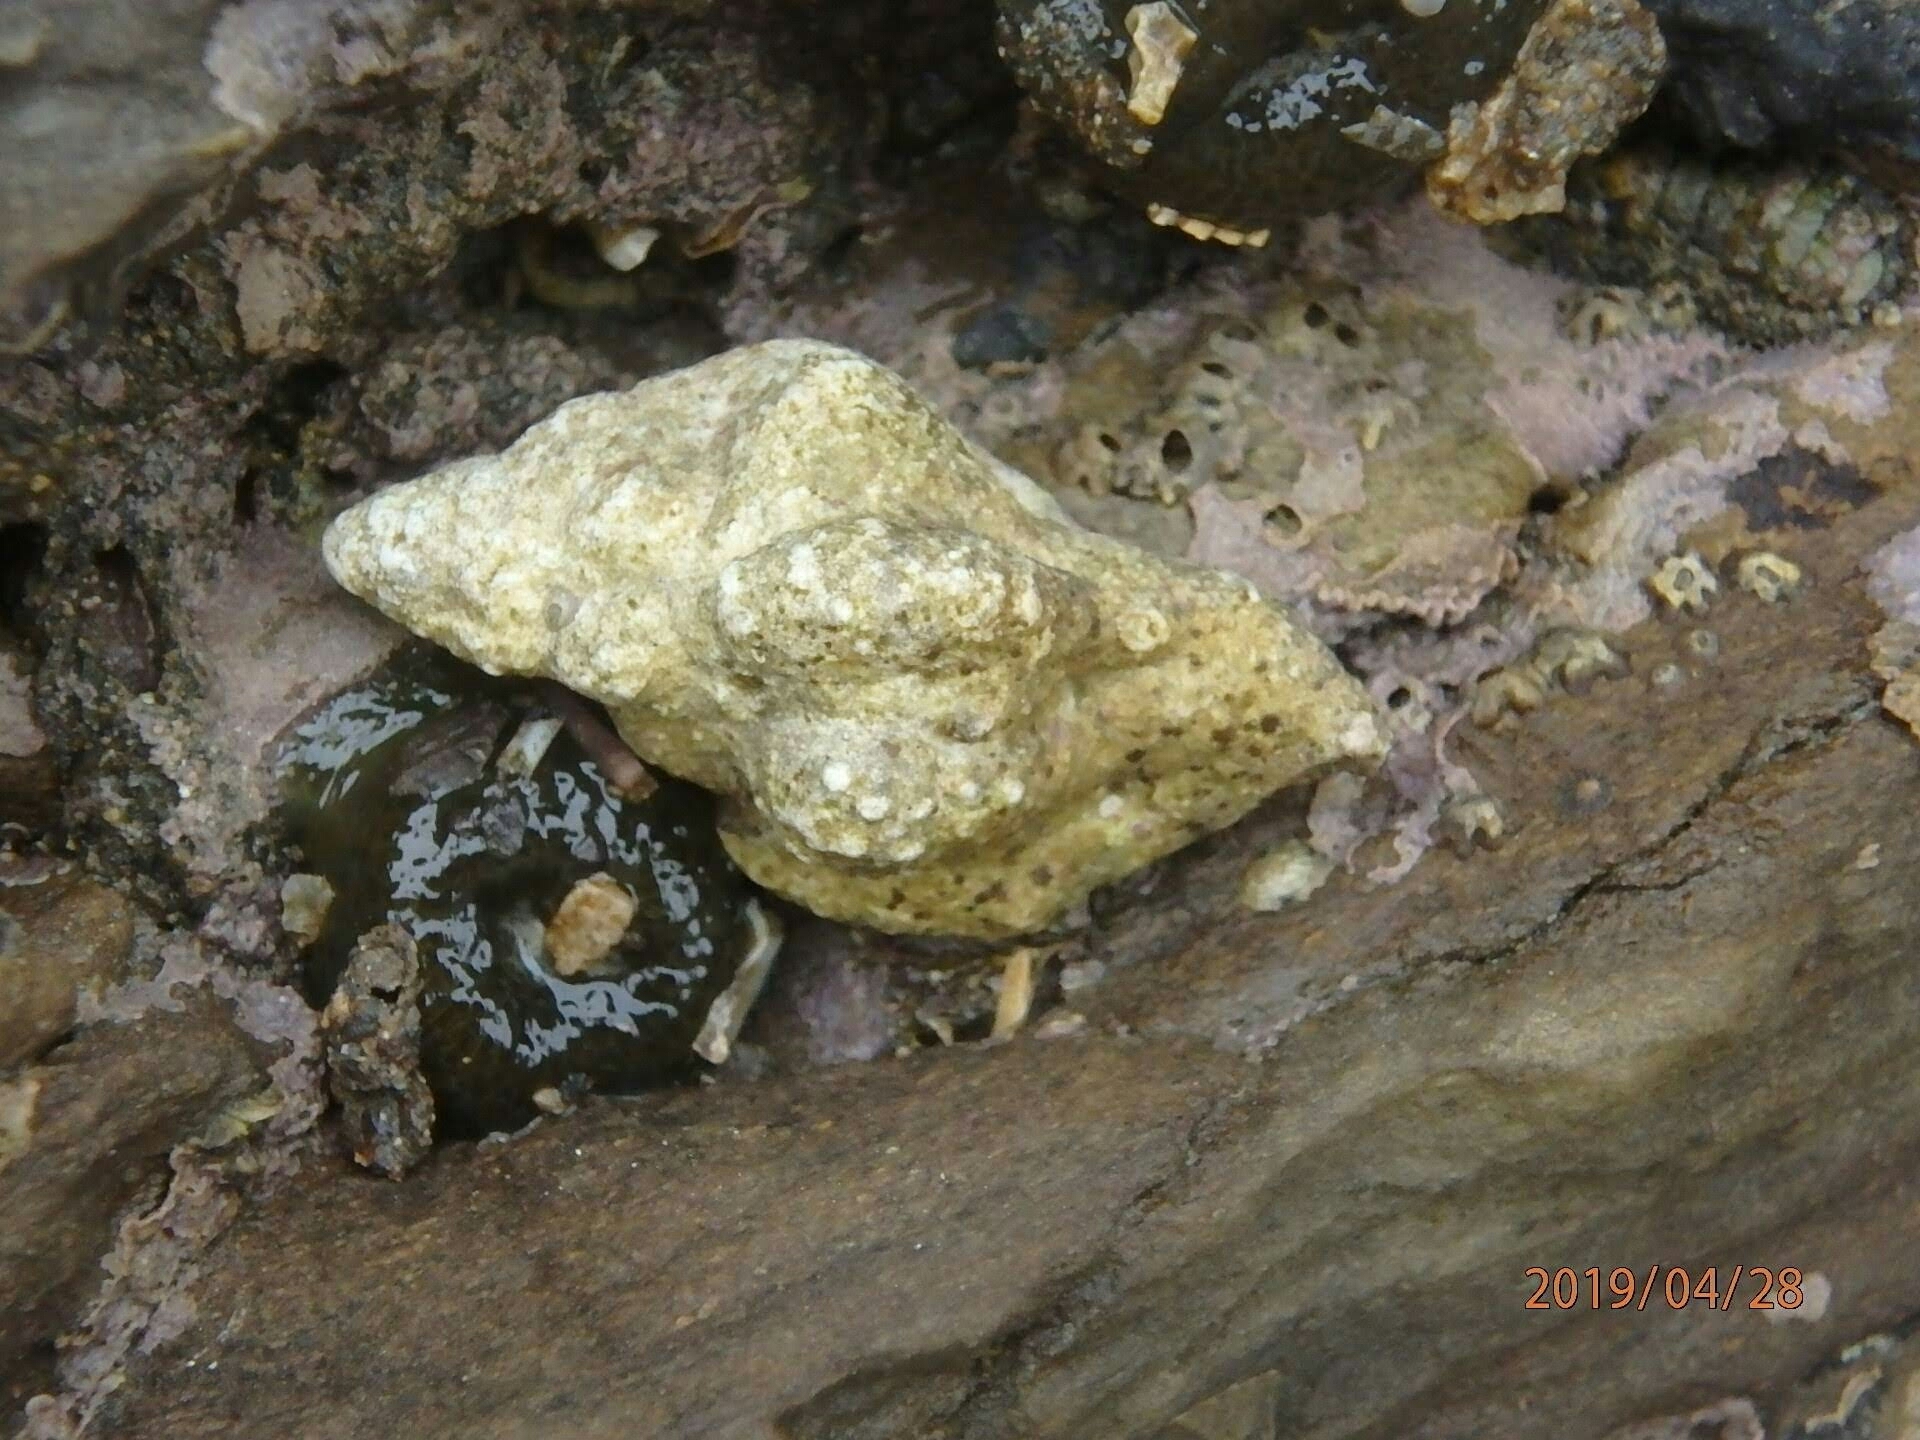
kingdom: Animalia
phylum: Mollusca
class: Gastropoda
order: Neogastropoda
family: Muricidae
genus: Pteropurpura
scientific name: Pteropurpura festiva
